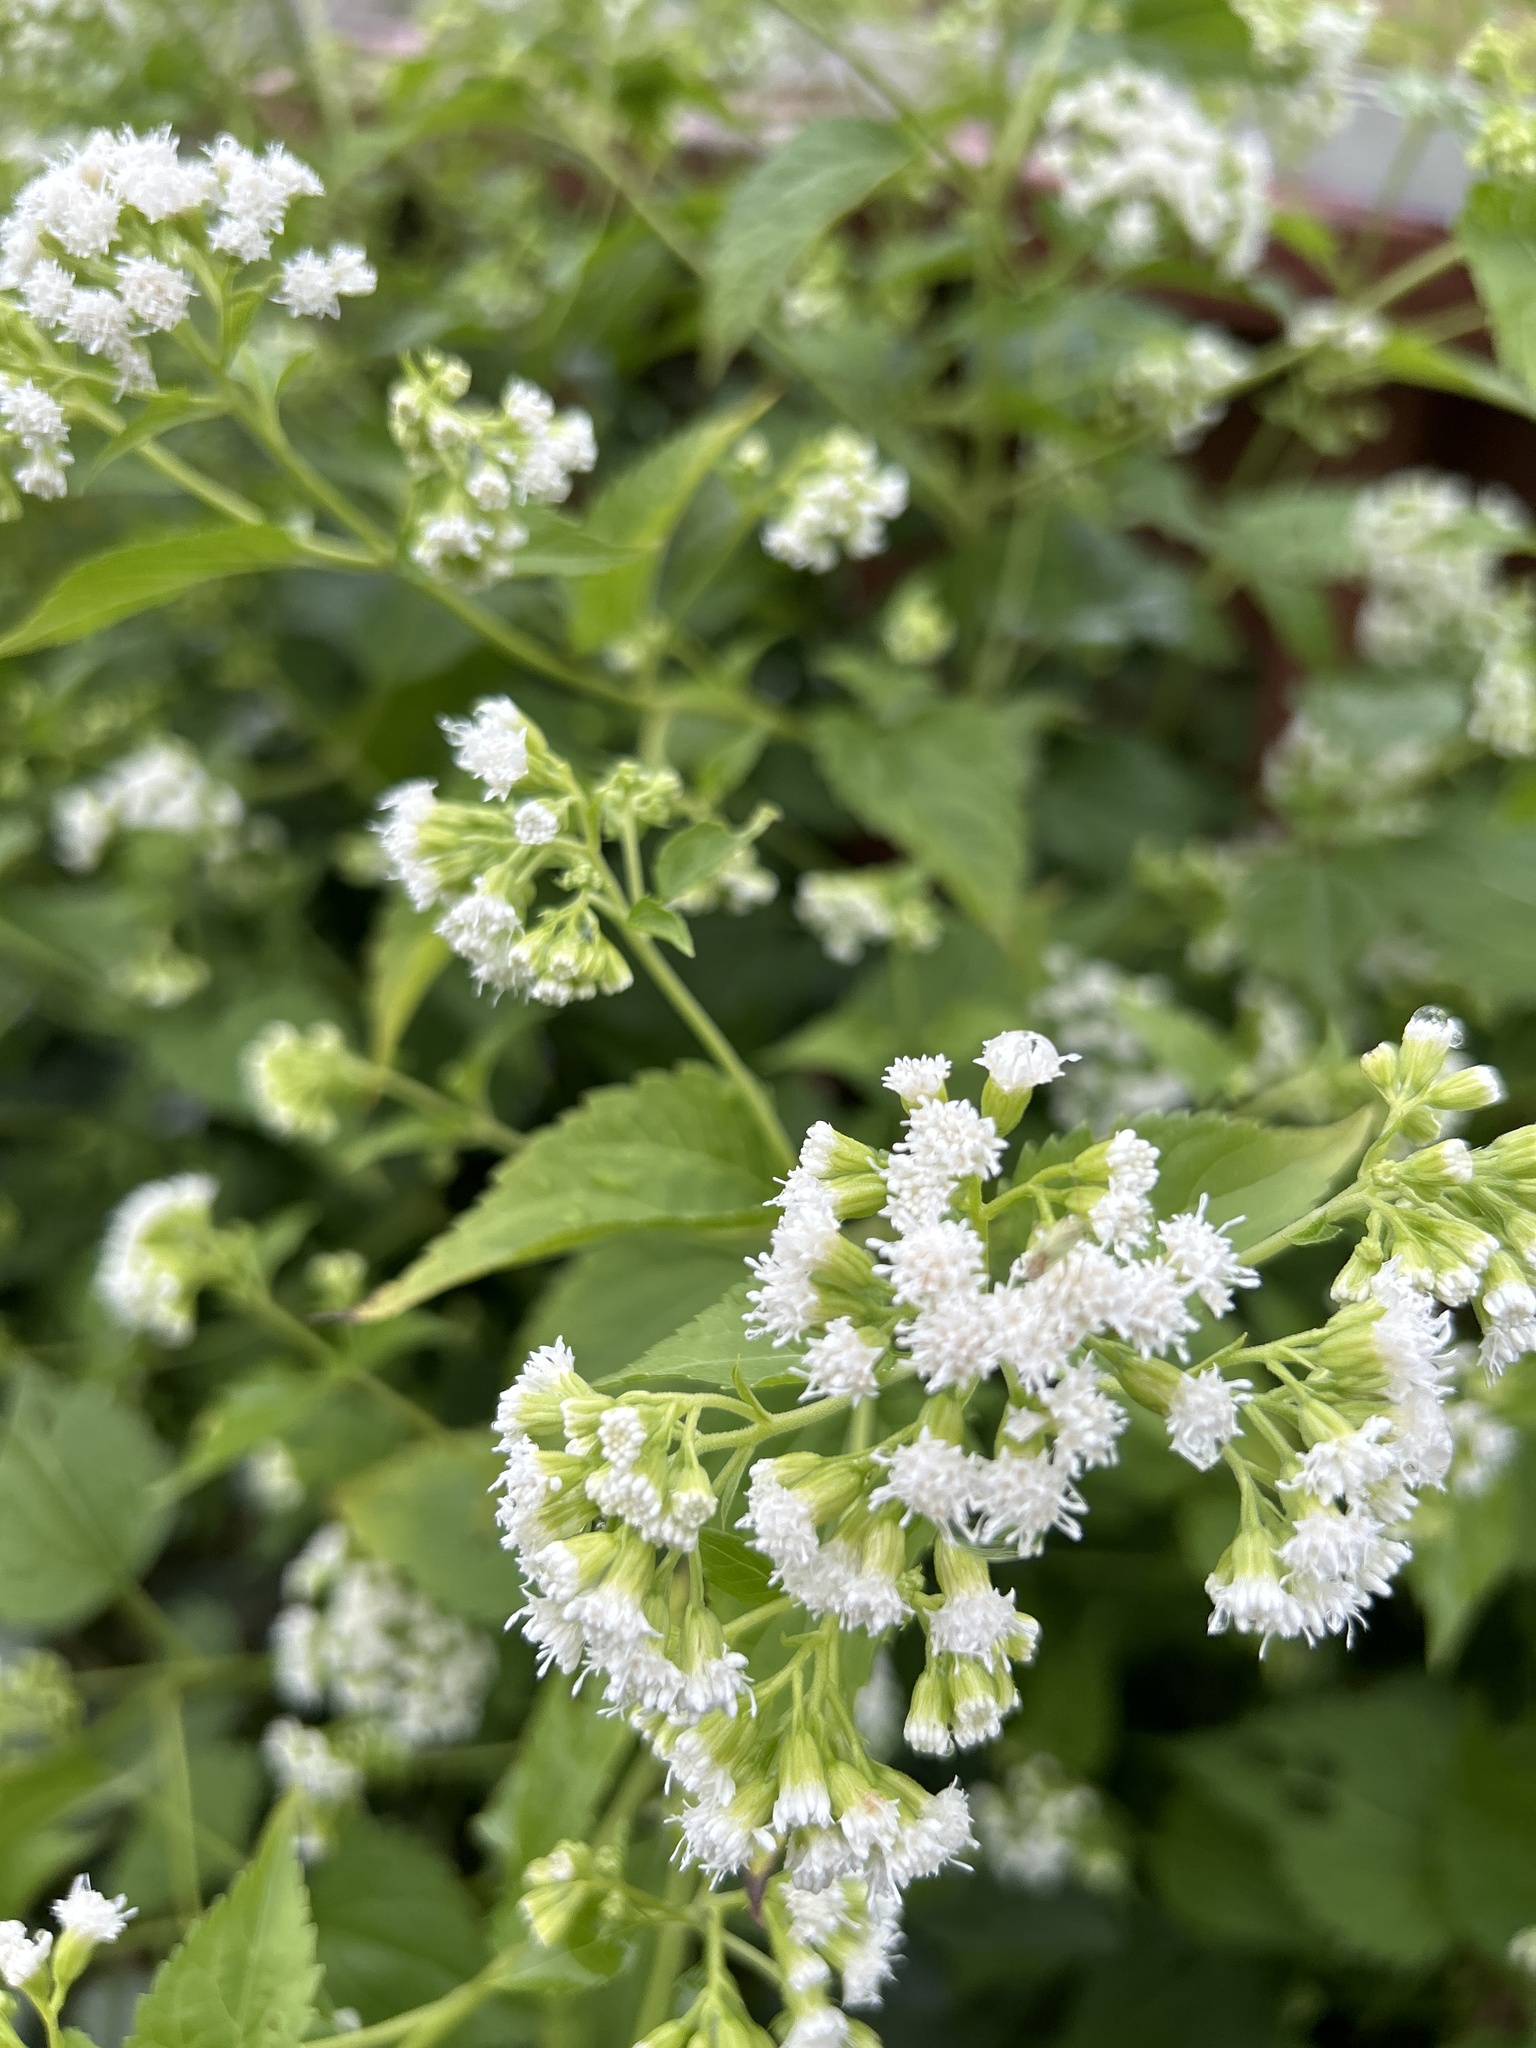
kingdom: Plantae
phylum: Tracheophyta
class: Magnoliopsida
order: Asterales
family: Asteraceae
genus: Ageratina
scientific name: Ageratina altissima
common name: White snakeroot
